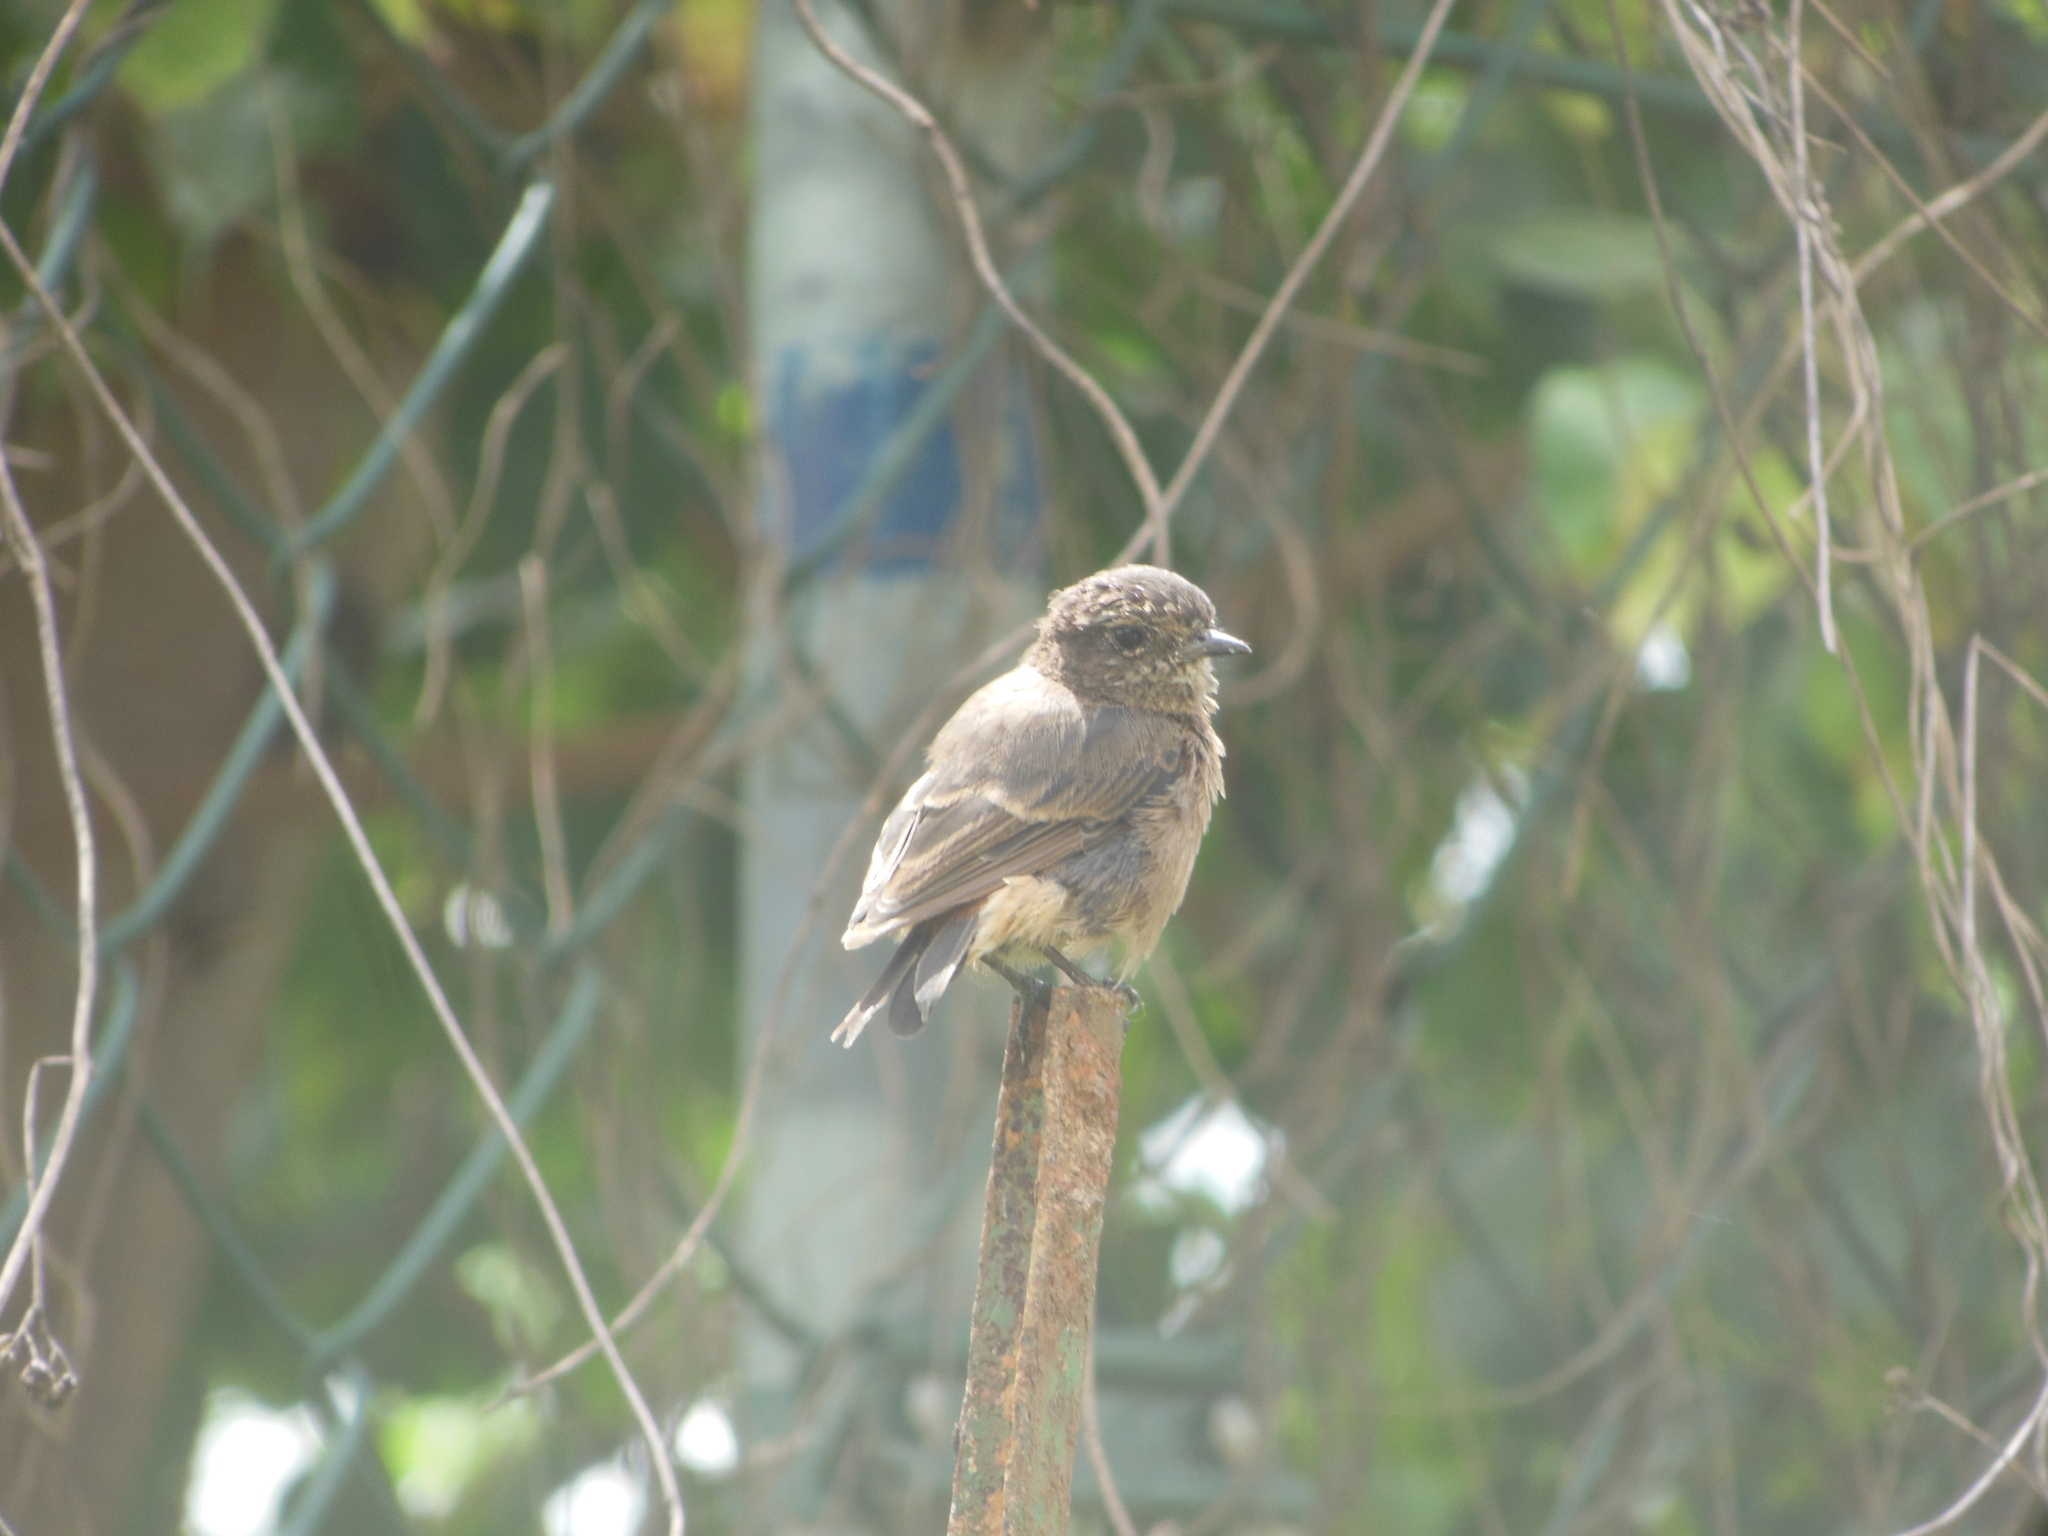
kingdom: Animalia
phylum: Chordata
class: Aves
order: Passeriformes
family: Muscicapidae
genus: Saxicola
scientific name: Saxicola caprata
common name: Pied bush chat
